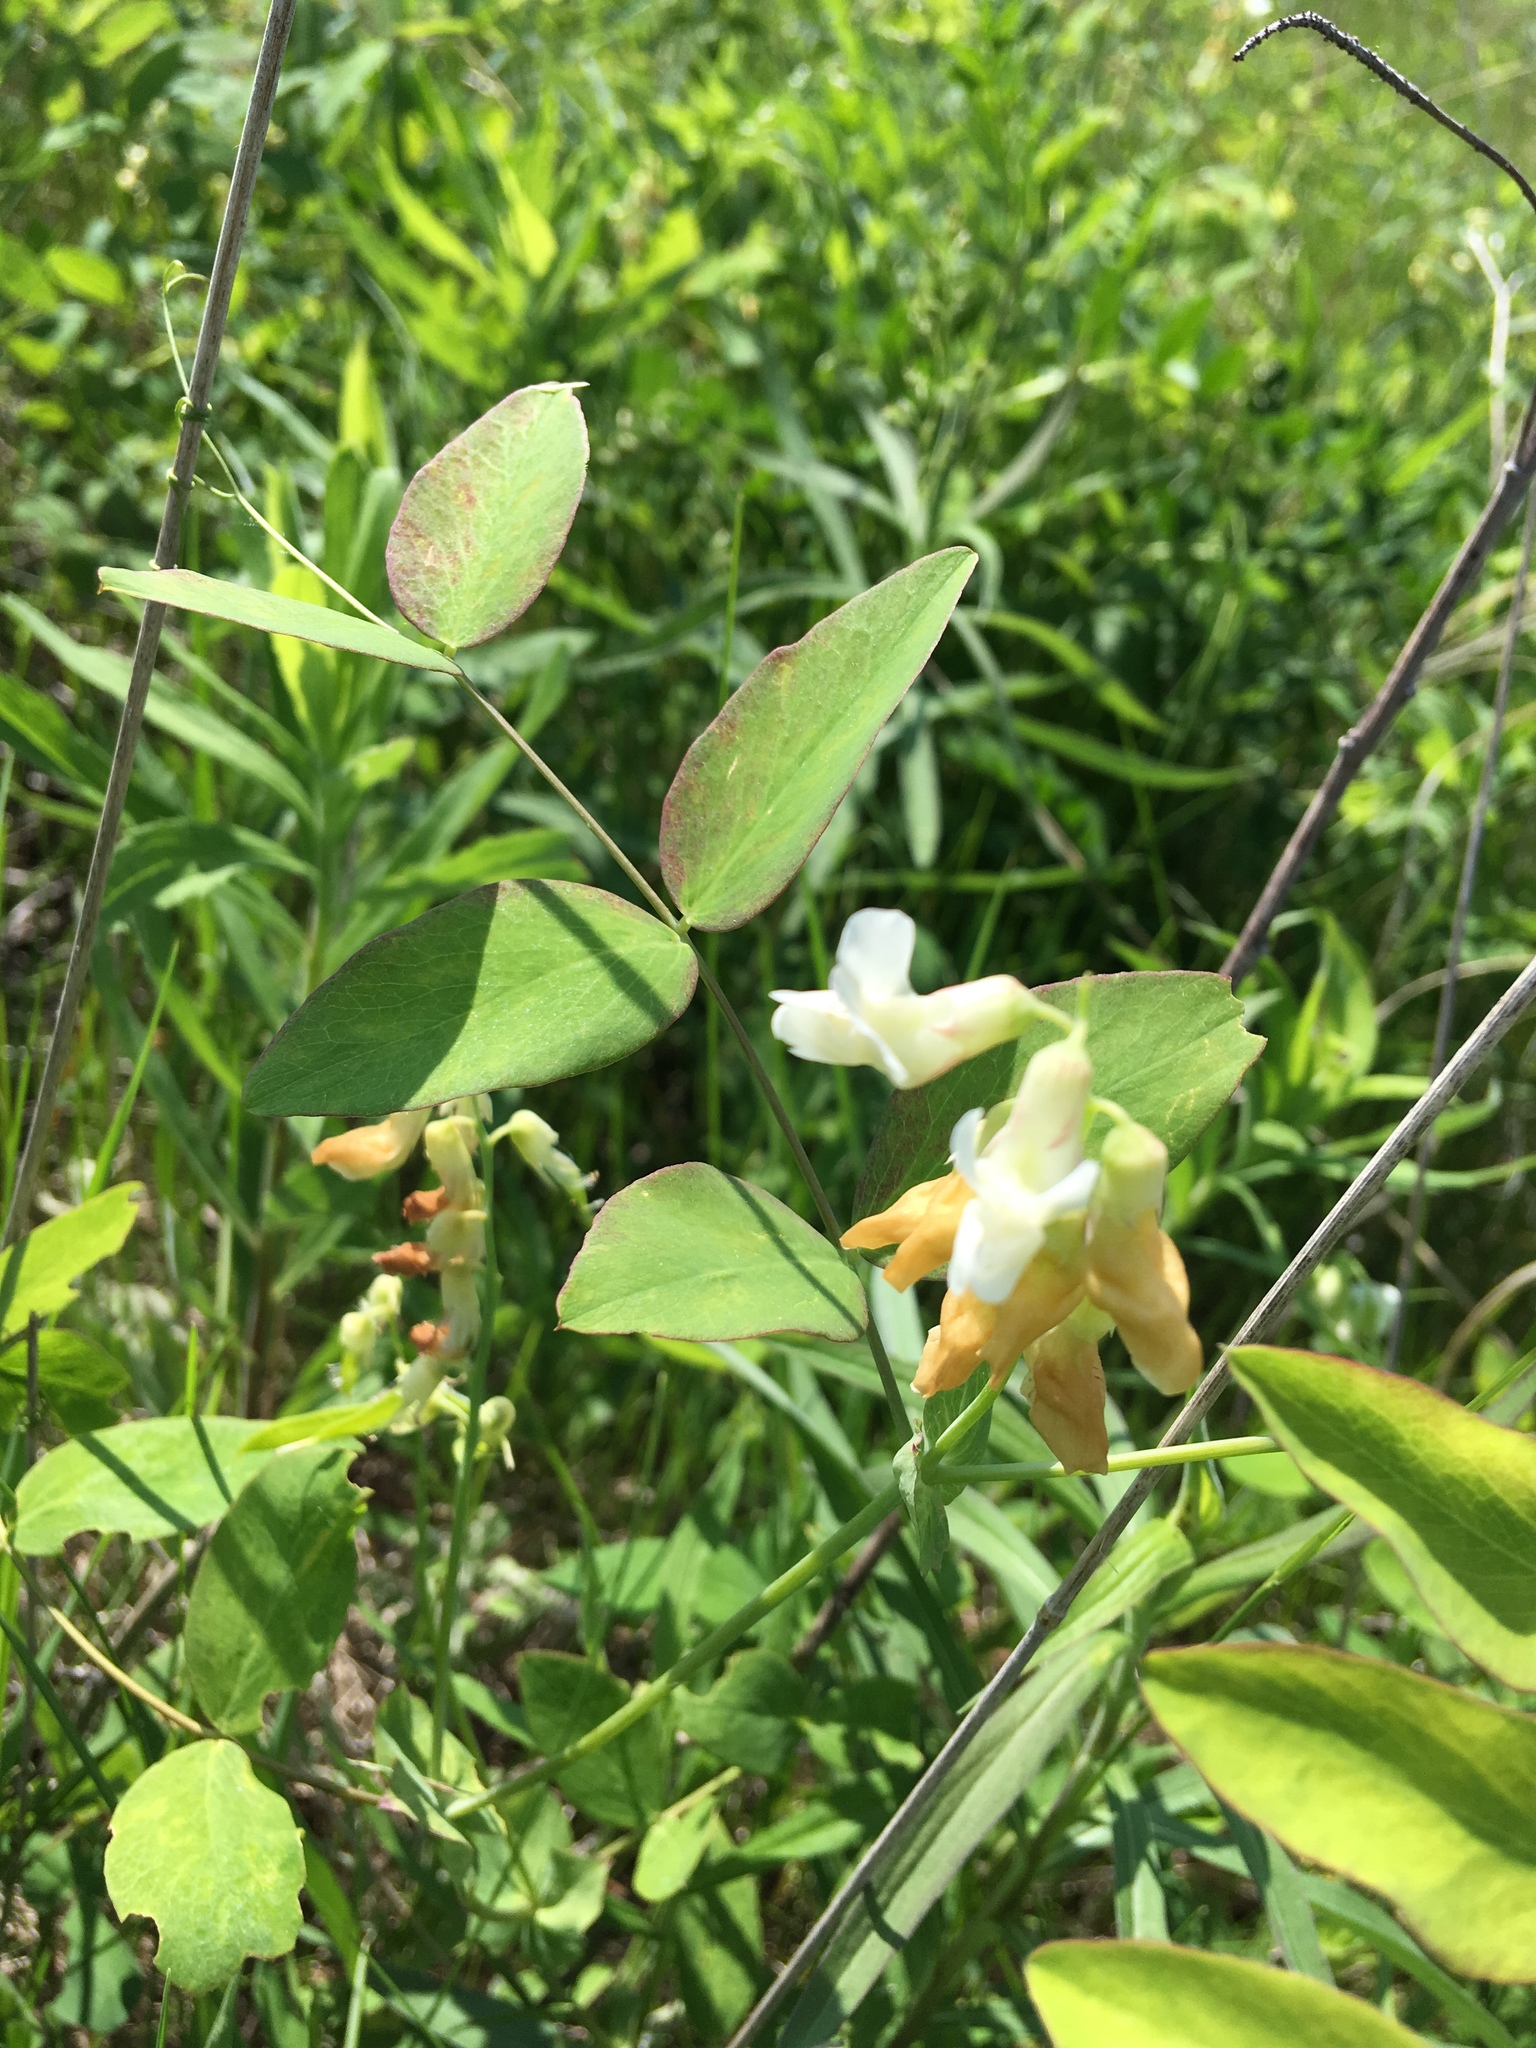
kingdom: Plantae
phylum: Tracheophyta
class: Magnoliopsida
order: Fabales
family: Fabaceae
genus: Lathyrus
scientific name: Lathyrus ochroleucus
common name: Pale vetchling
